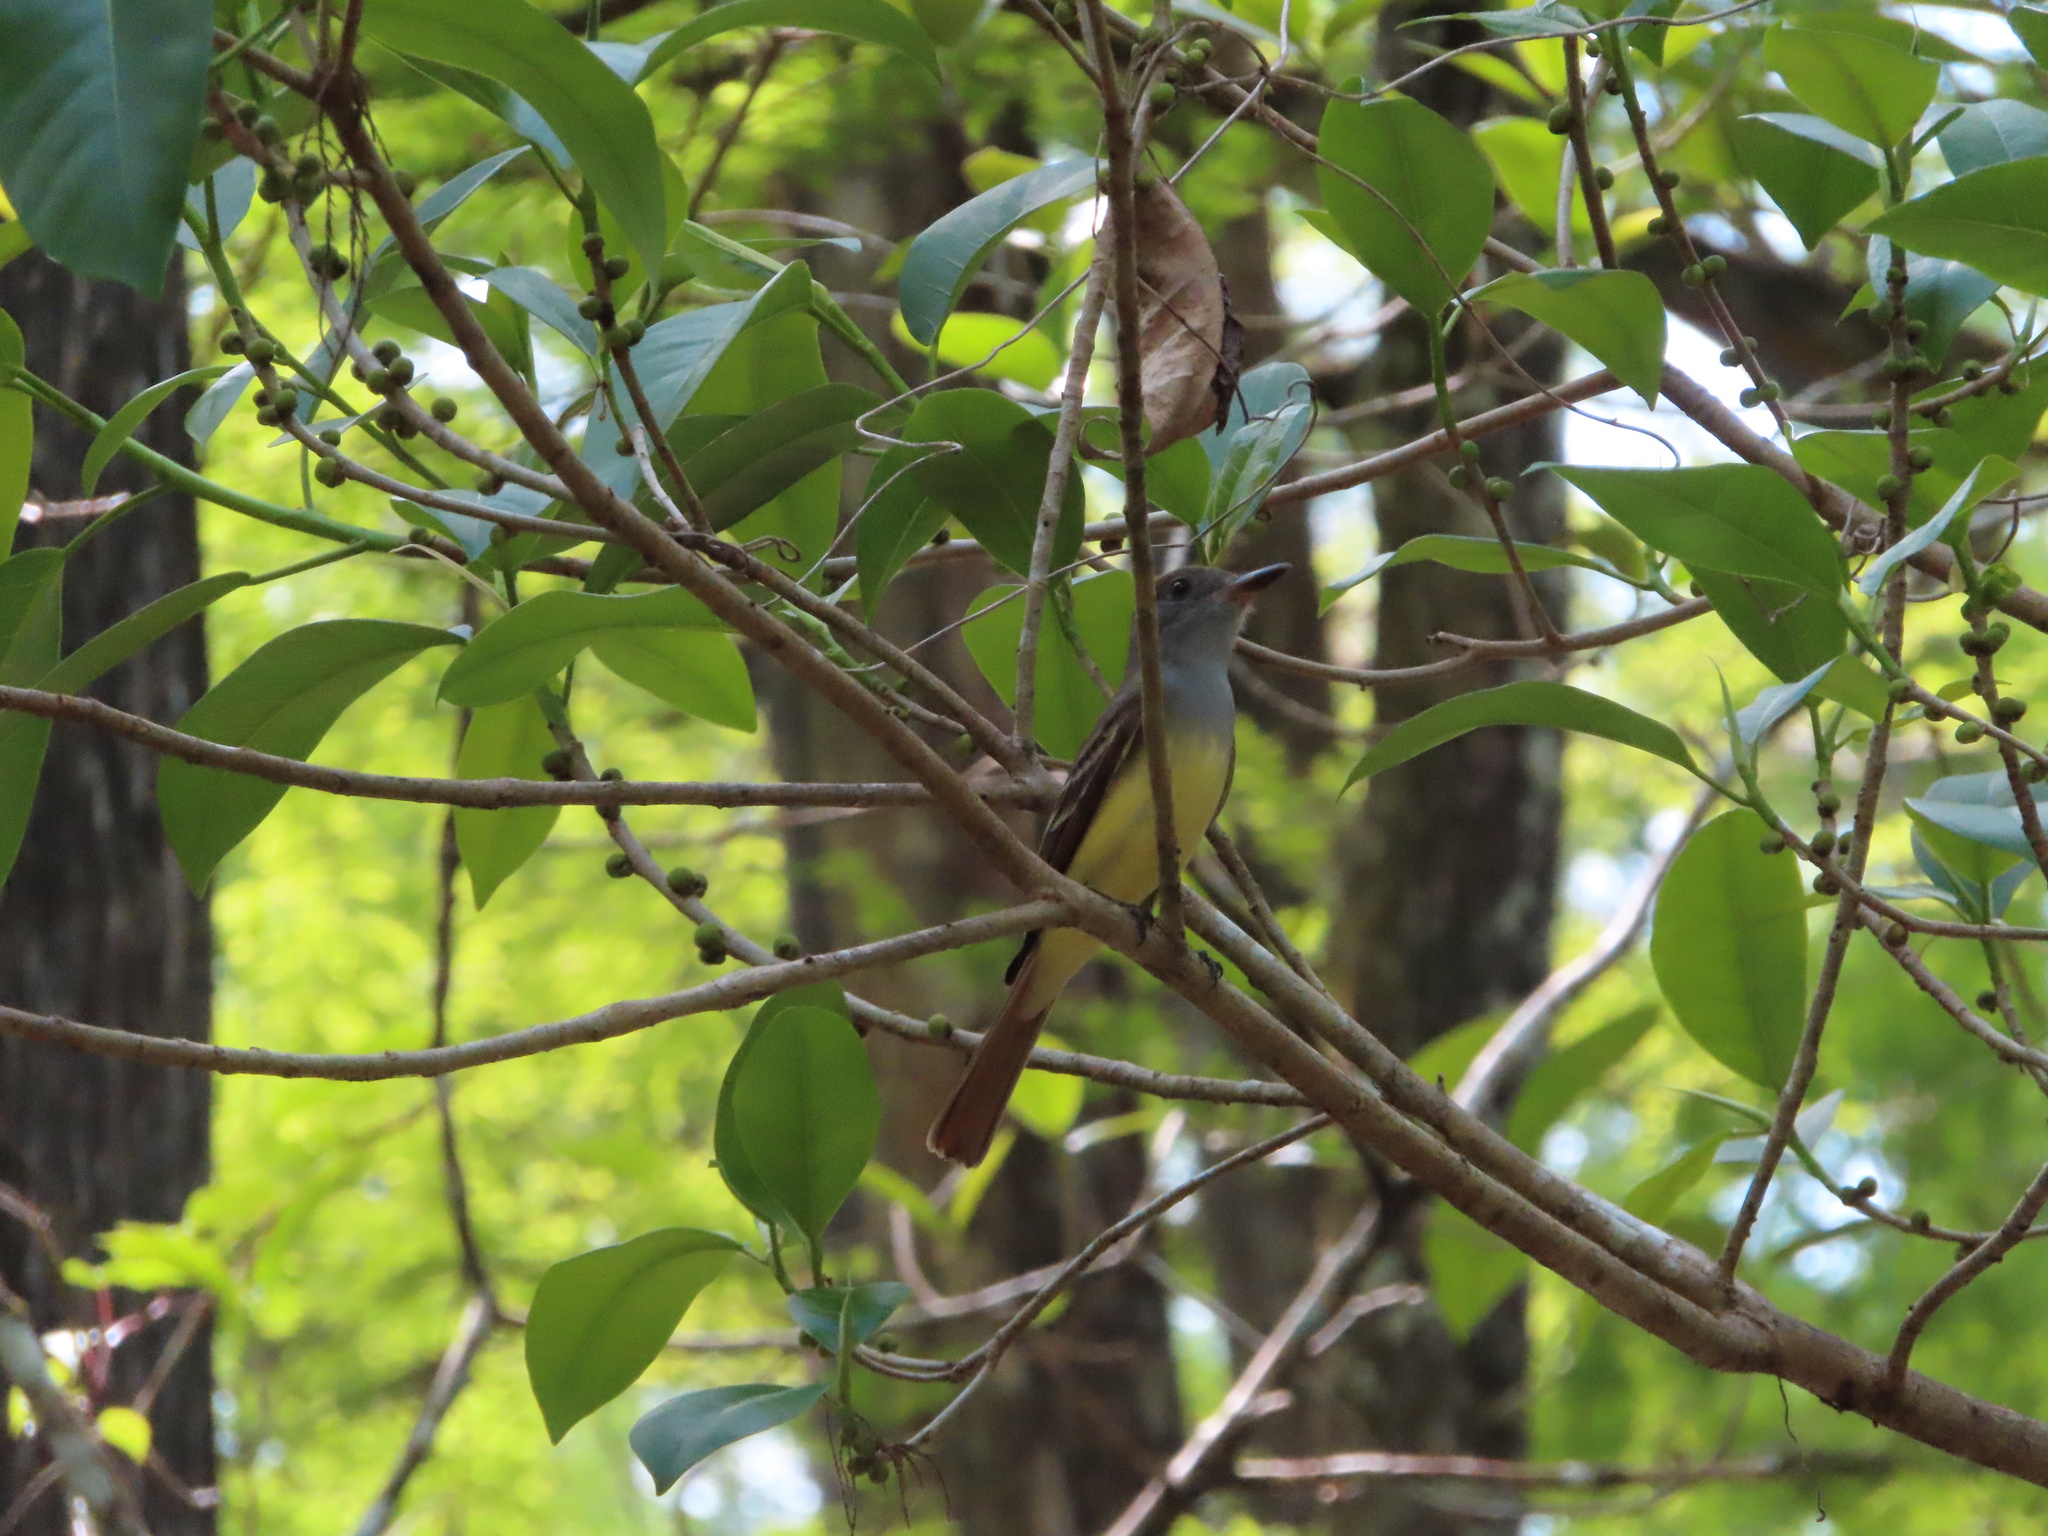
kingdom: Animalia
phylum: Chordata
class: Aves
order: Passeriformes
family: Tyrannidae
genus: Myiarchus
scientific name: Myiarchus crinitus
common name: Great crested flycatcher
